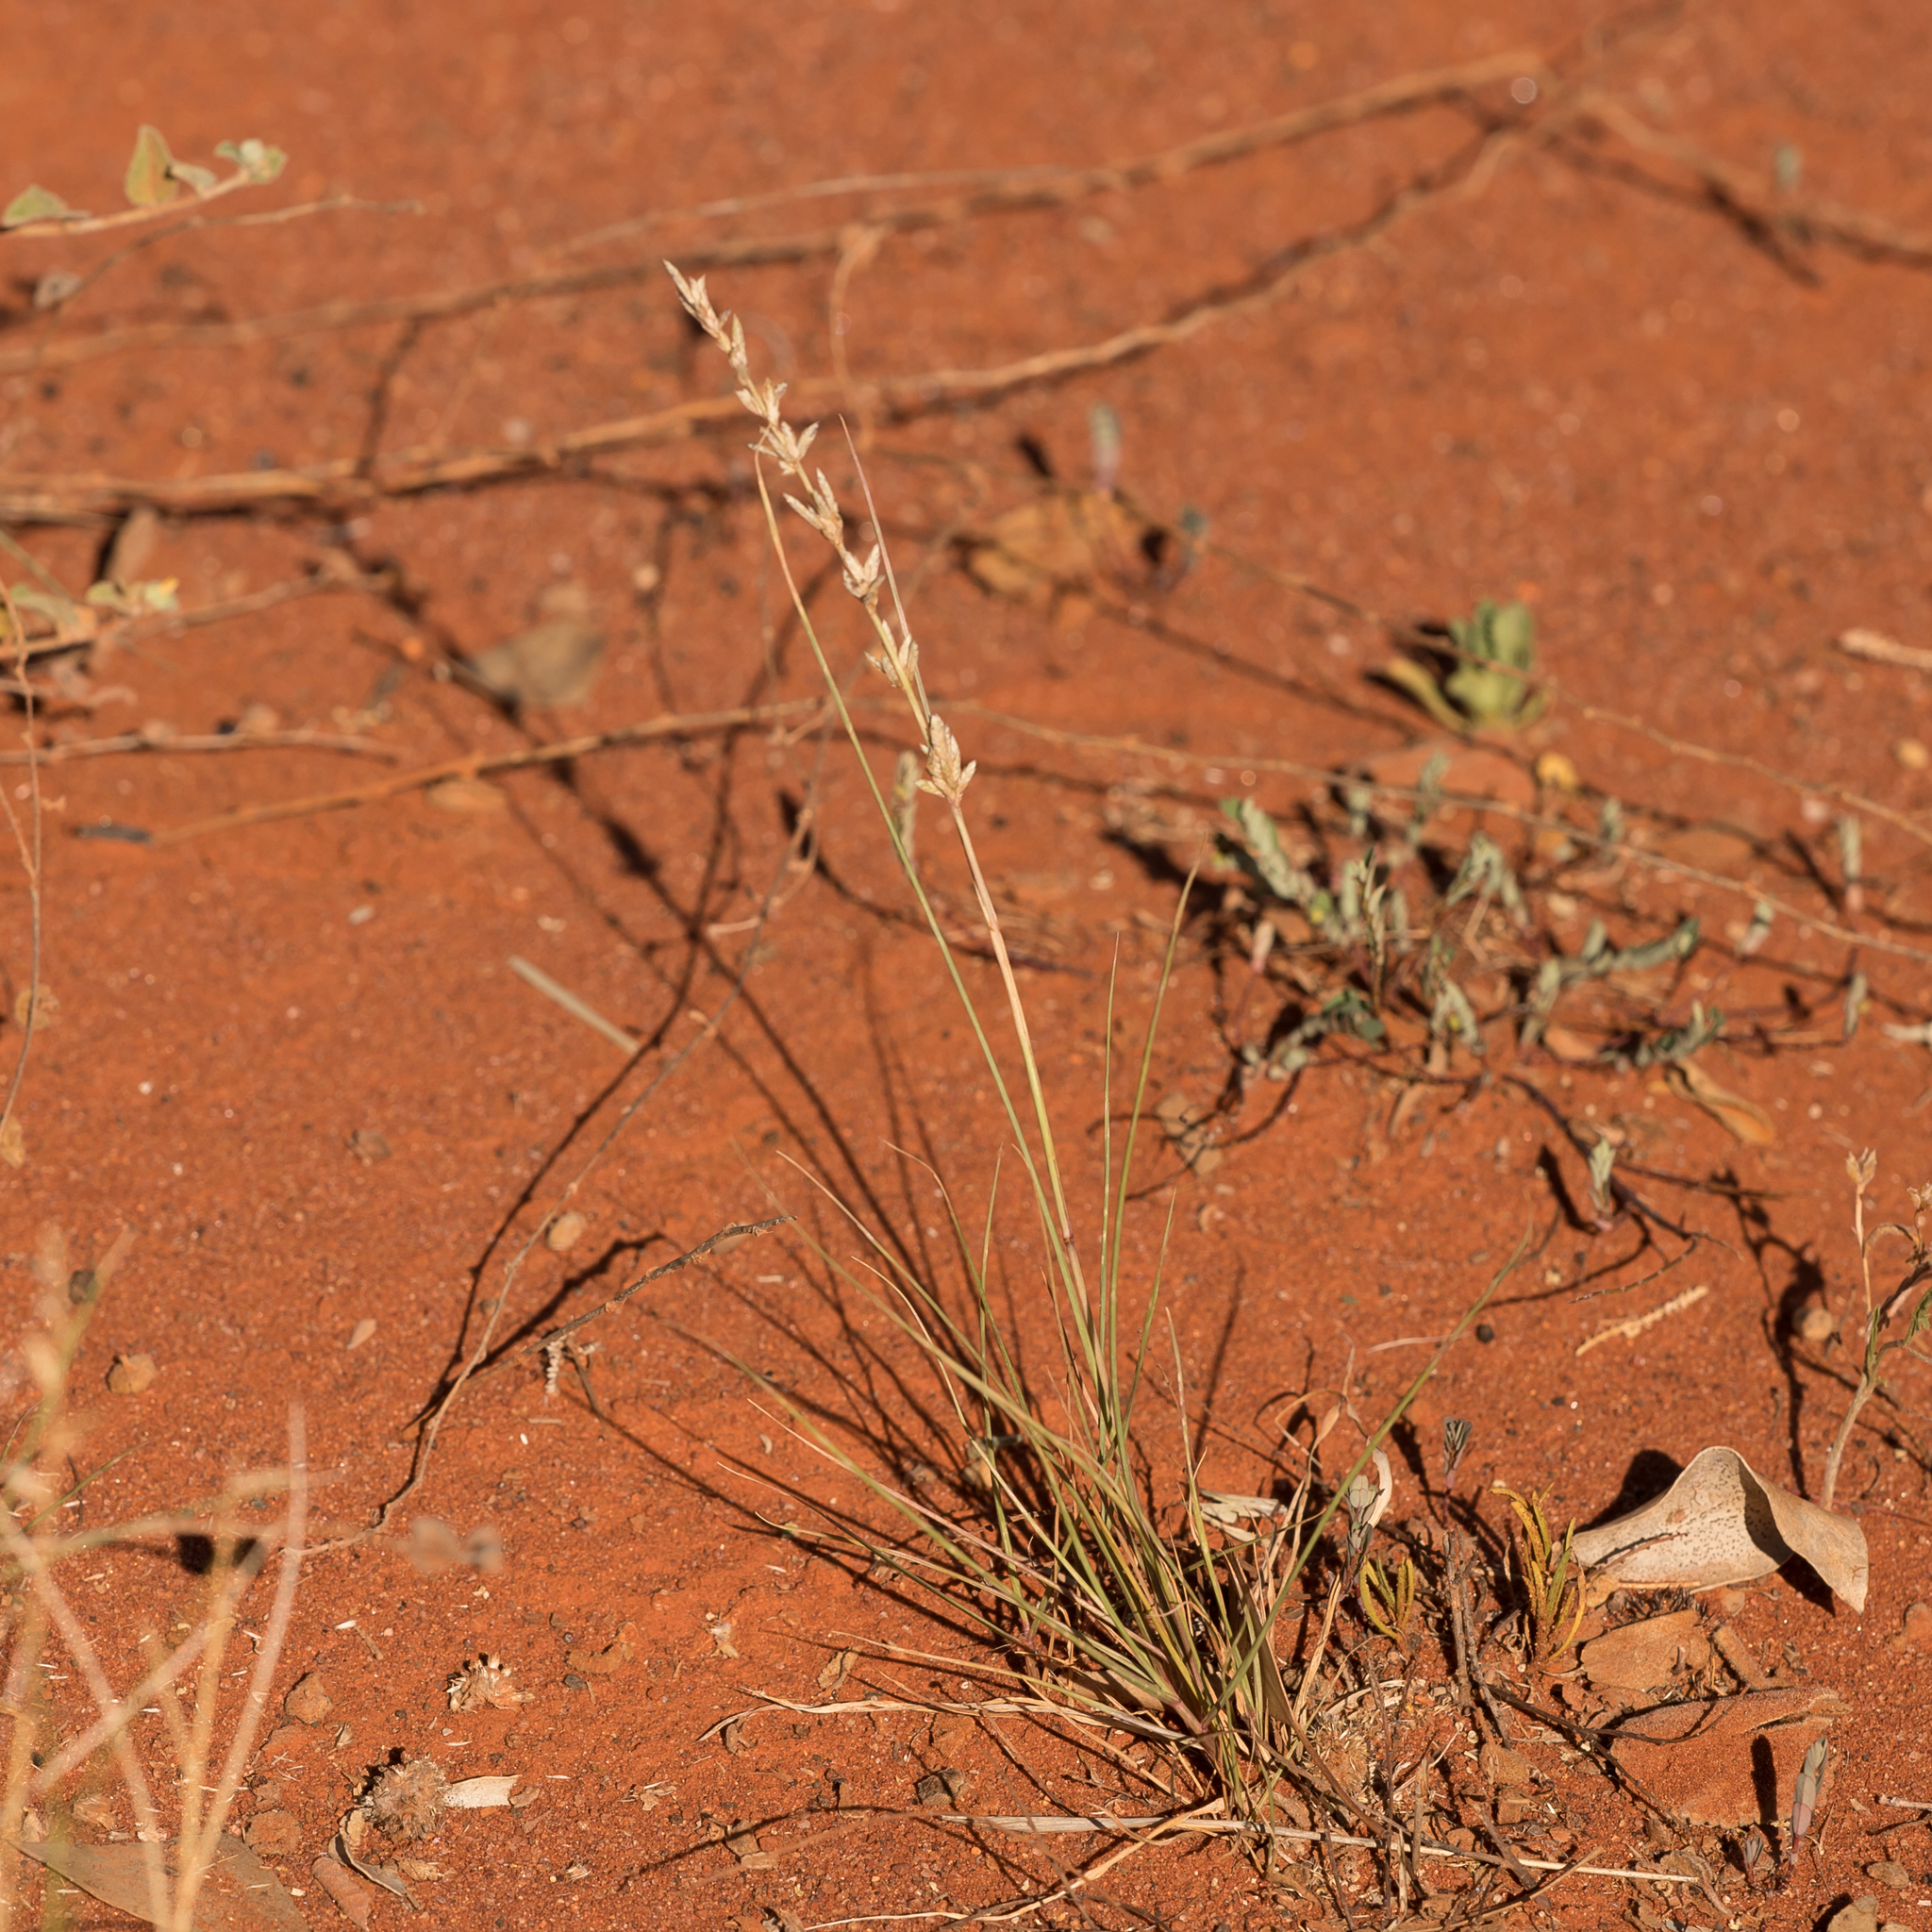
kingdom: Plantae
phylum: Tracheophyta
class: Liliopsida
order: Poales
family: Poaceae
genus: Eragrostis
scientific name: Eragrostis elongata
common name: Long lovegrass
